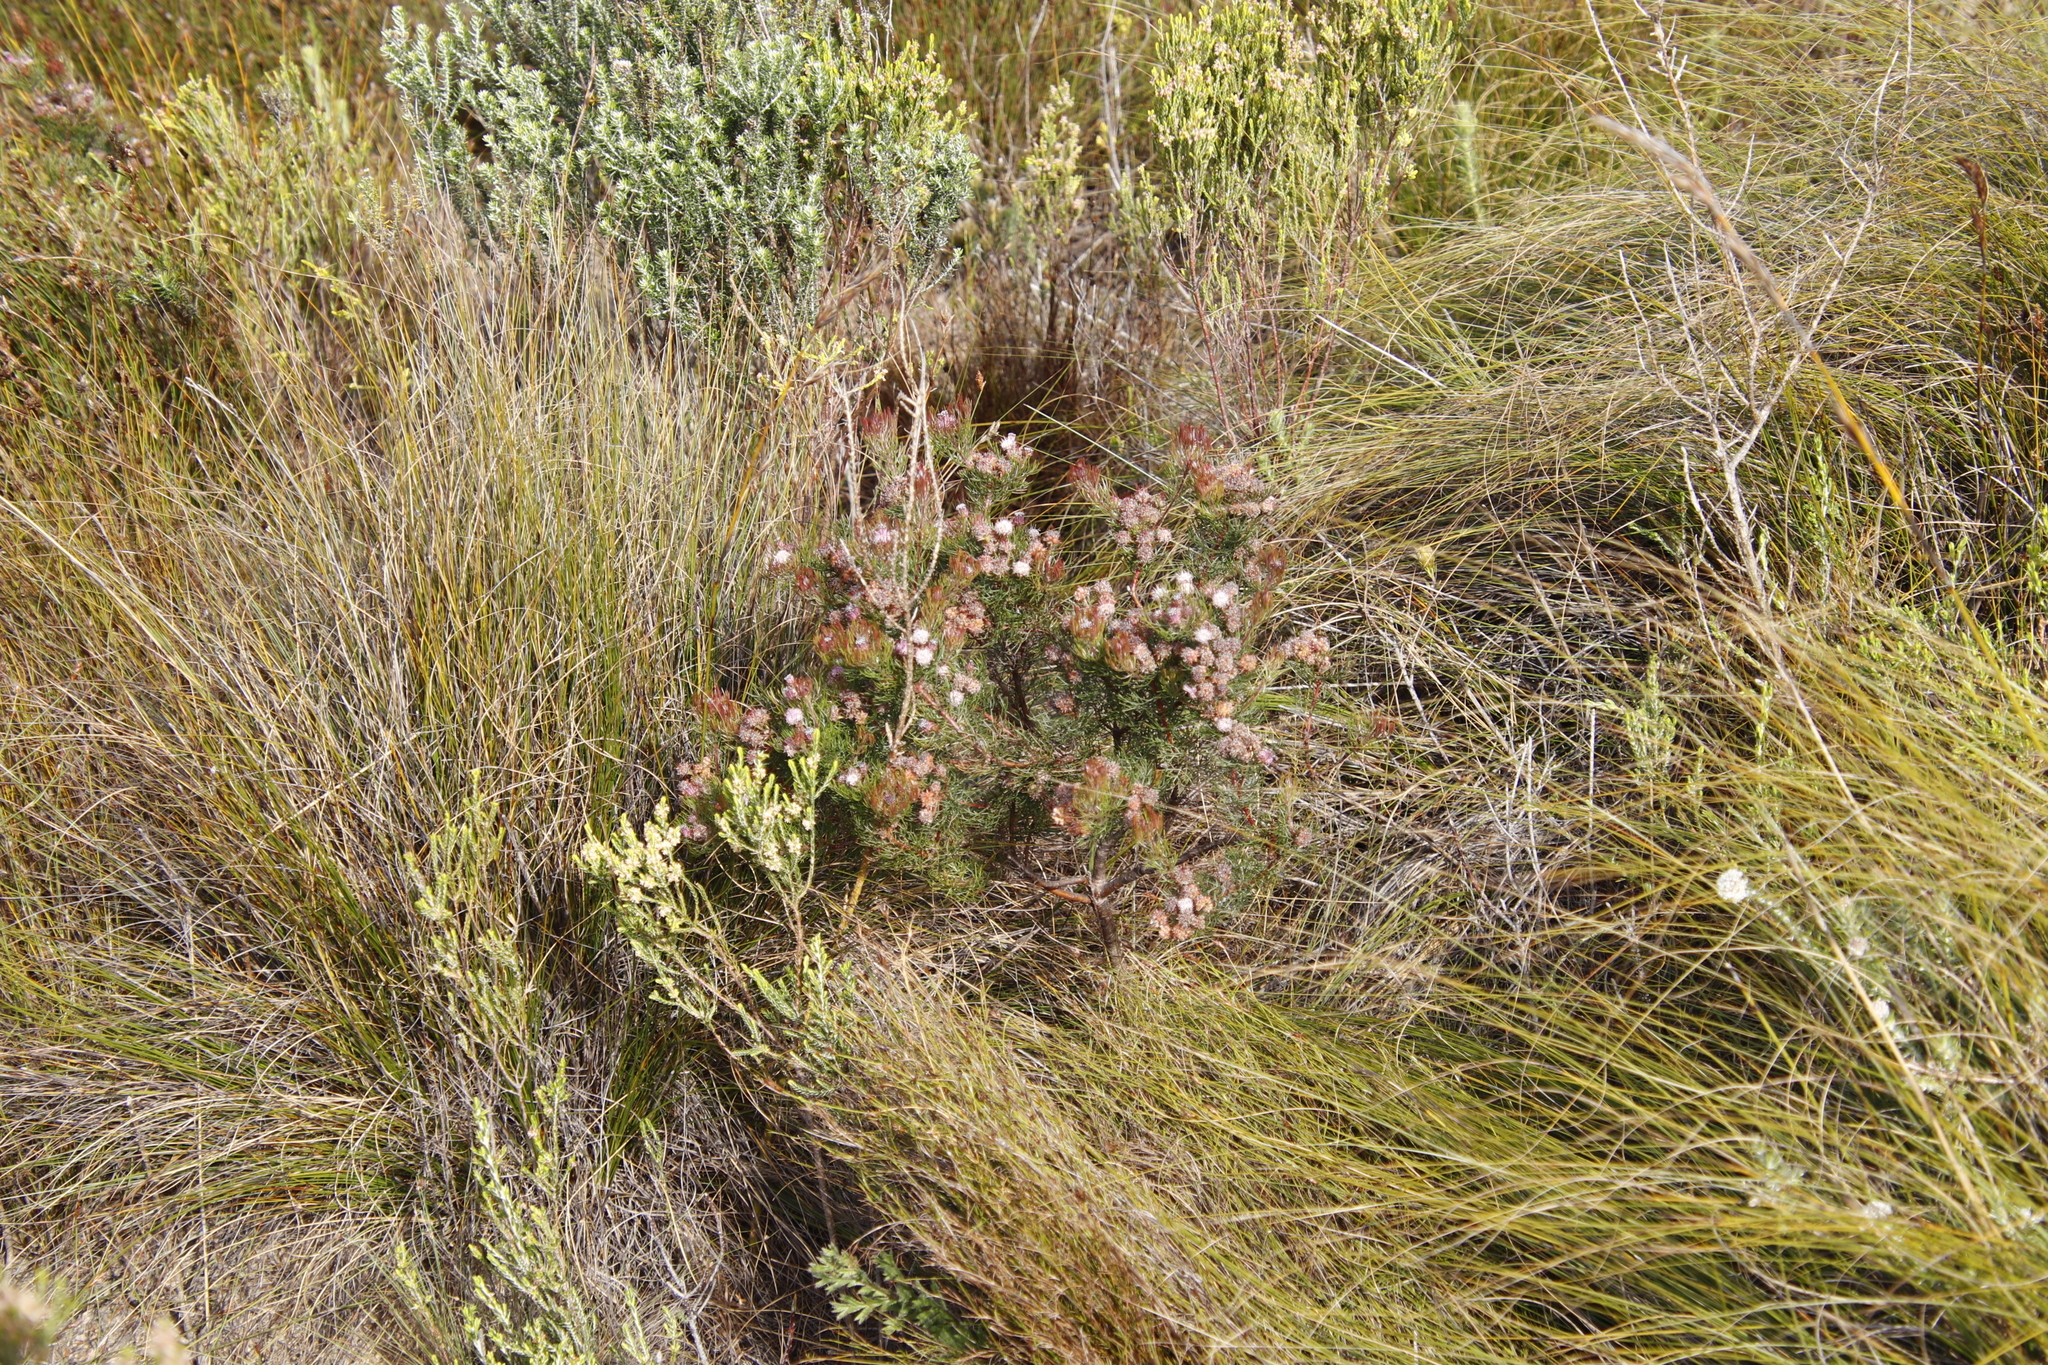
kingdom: Plantae
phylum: Tracheophyta
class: Magnoliopsida
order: Proteales
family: Proteaceae
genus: Serruria
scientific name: Serruria fasciflora
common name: Common pin spiderhead
